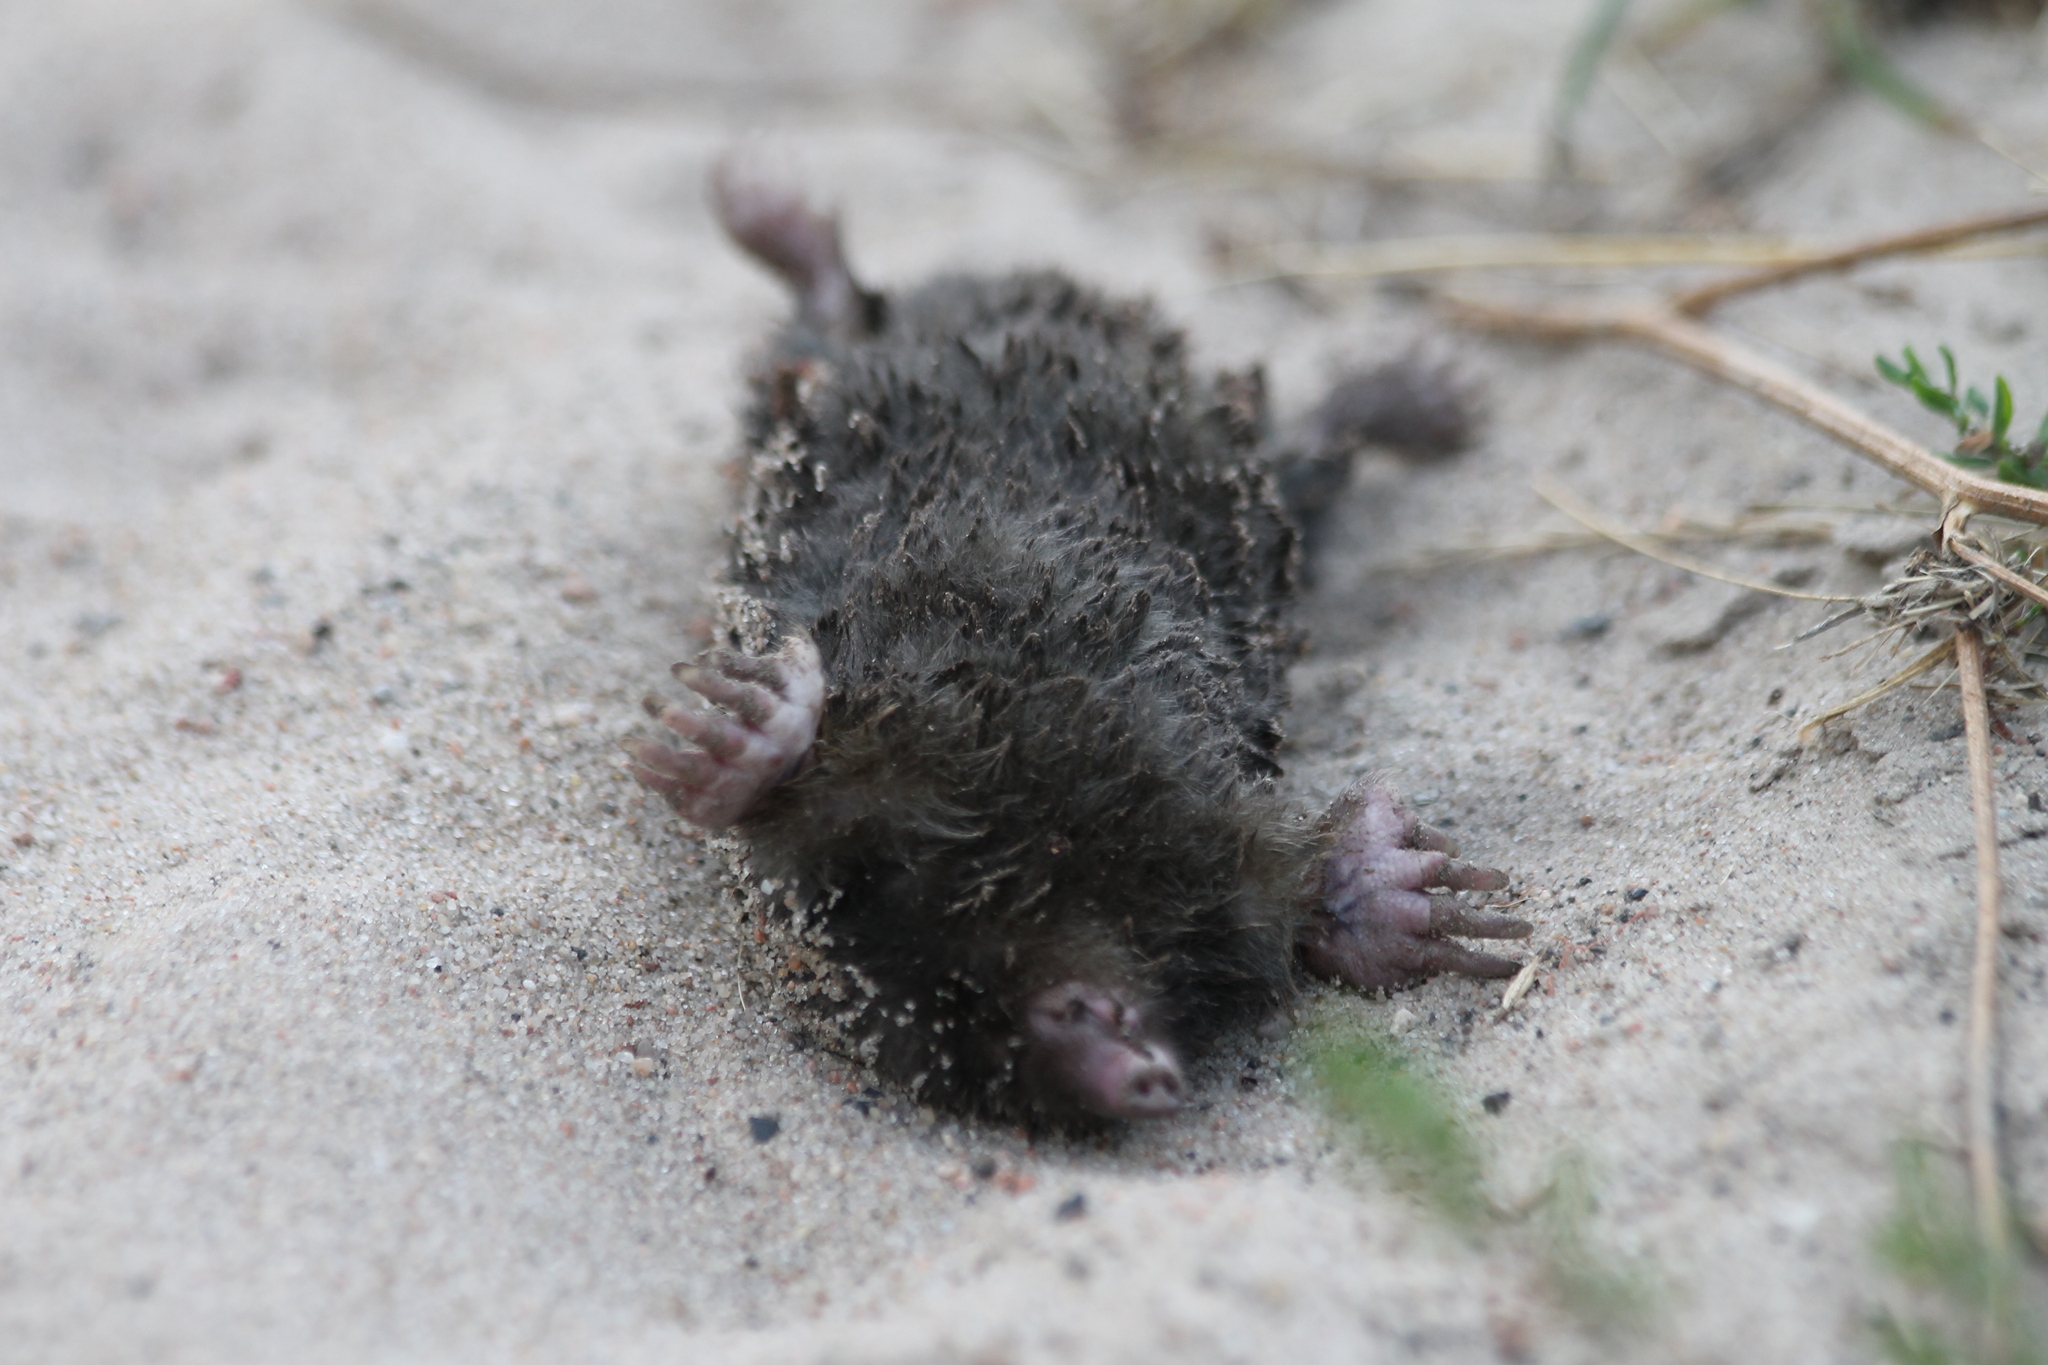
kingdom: Animalia
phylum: Chordata
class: Mammalia
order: Soricomorpha
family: Talpidae
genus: Talpa
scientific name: Talpa europaea
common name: European mole
